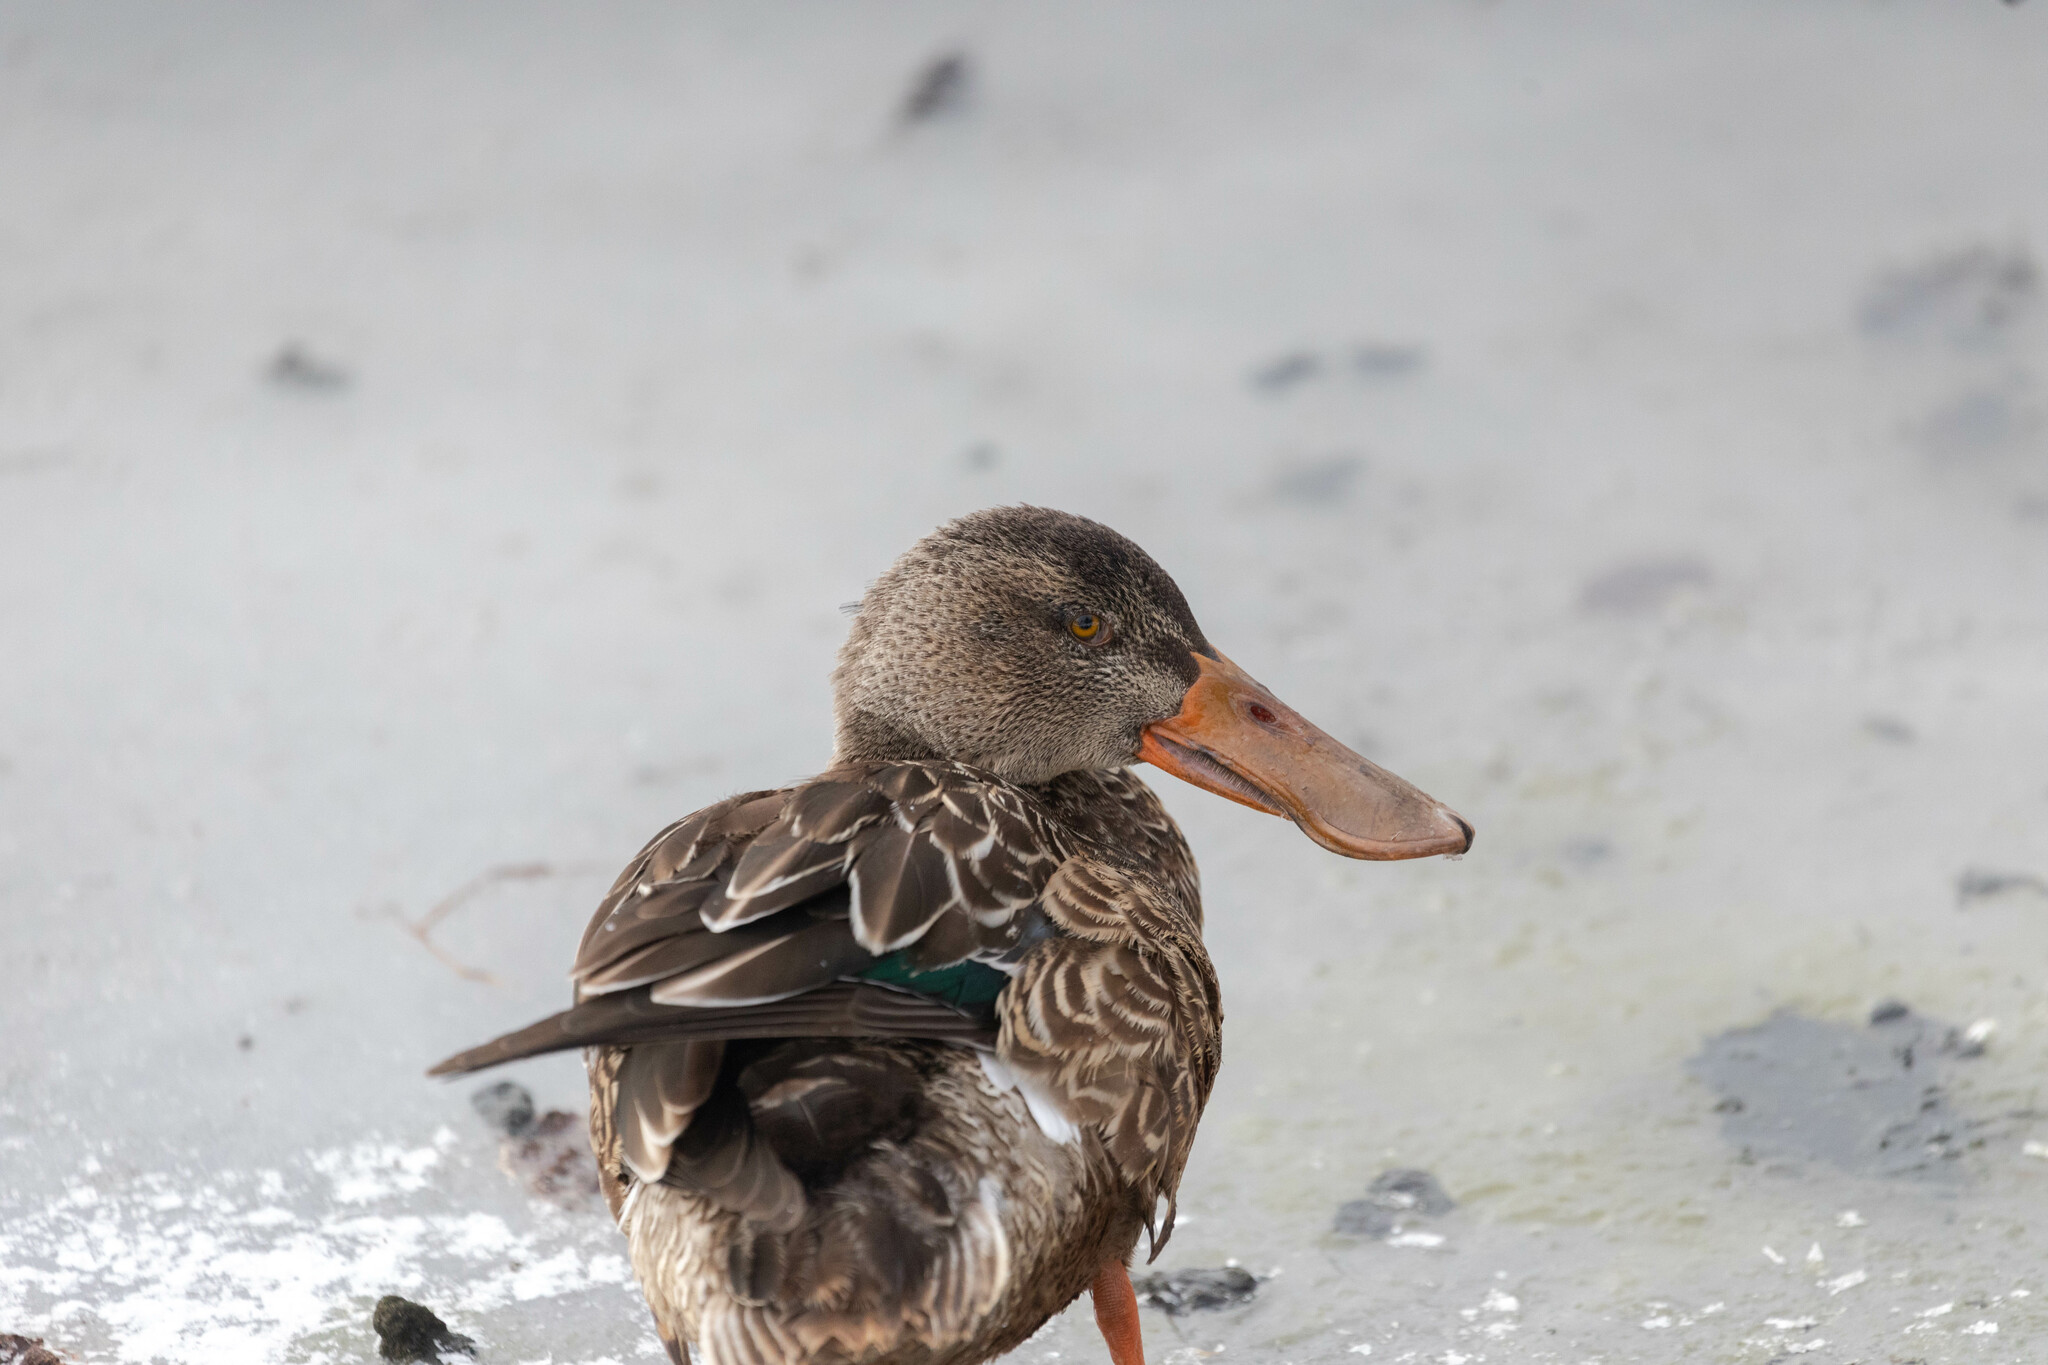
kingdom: Animalia
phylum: Chordata
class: Aves
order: Anseriformes
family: Anatidae
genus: Spatula
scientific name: Spatula clypeata
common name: Northern shoveler
